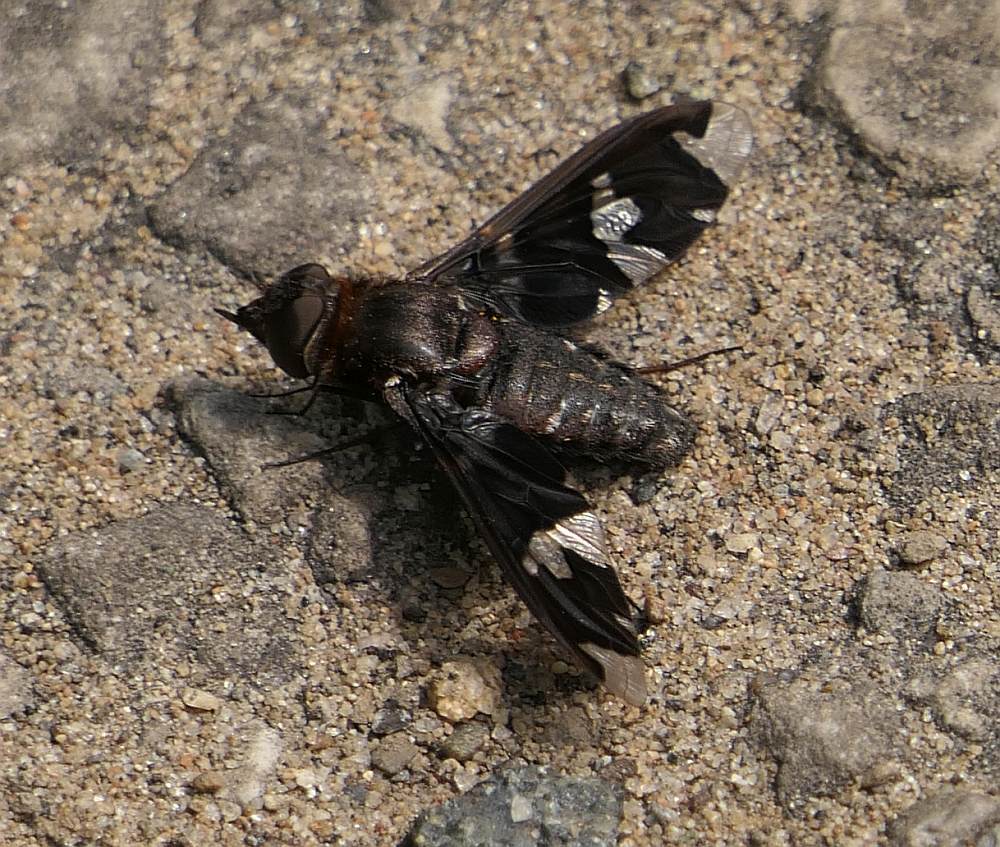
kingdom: Animalia
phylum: Arthropoda
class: Insecta
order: Diptera
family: Bombyliidae
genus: Exoprosopa
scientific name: Exoprosopa decora
